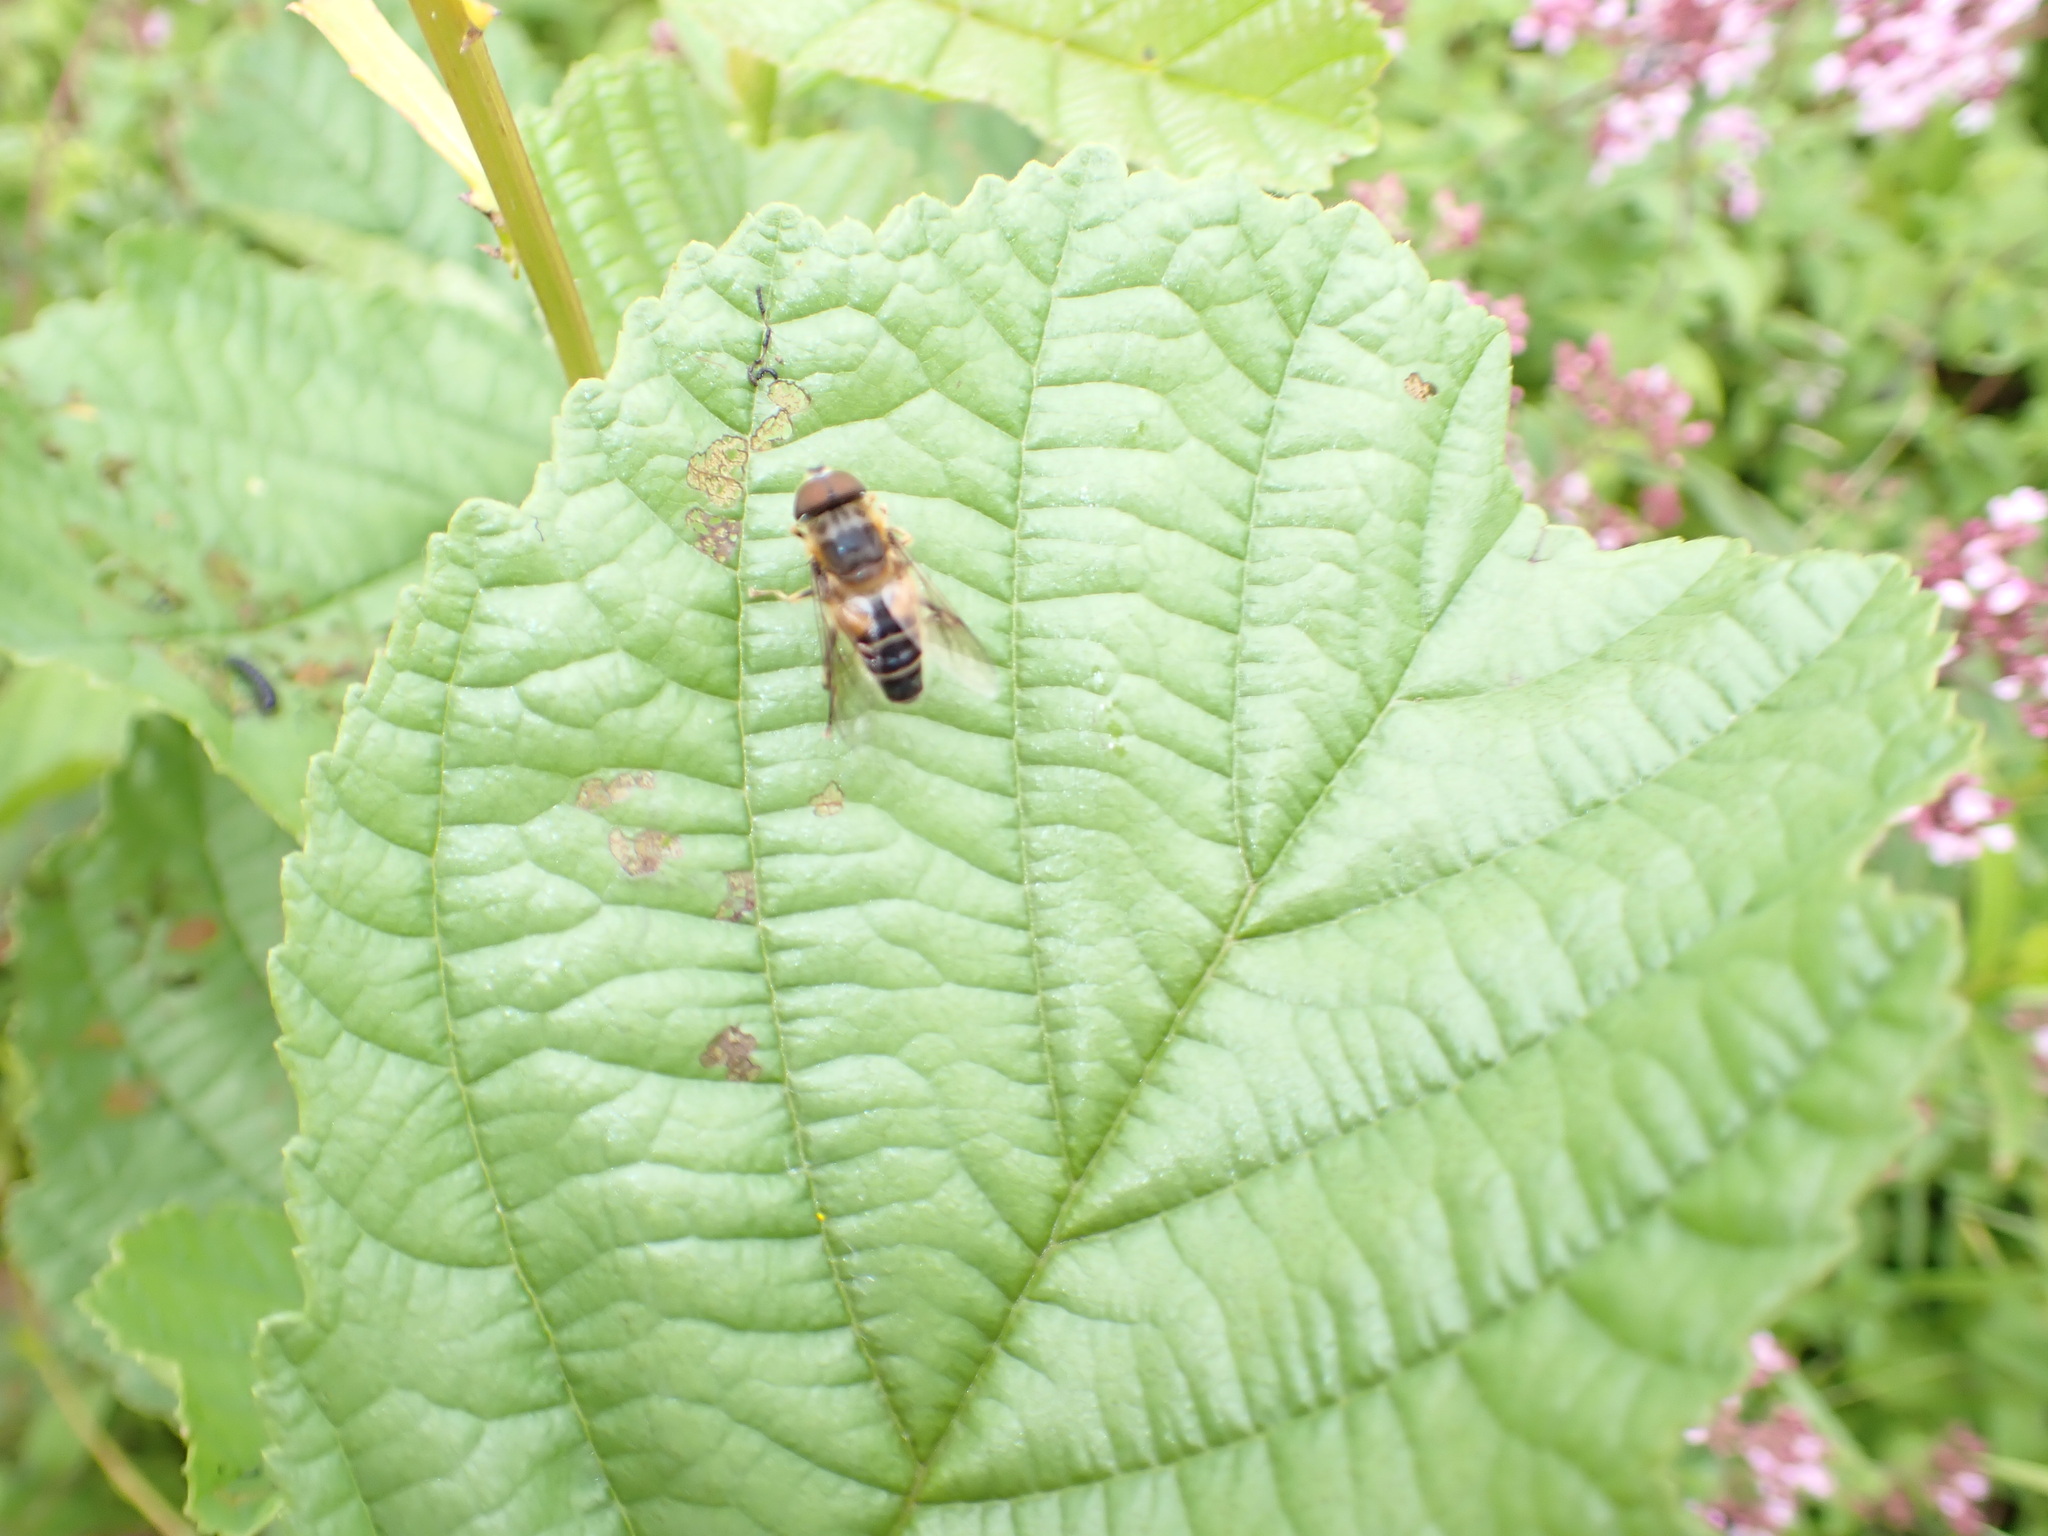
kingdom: Animalia
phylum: Arthropoda
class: Insecta
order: Diptera
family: Syrphidae
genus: Eristalis
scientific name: Eristalis pertinax
